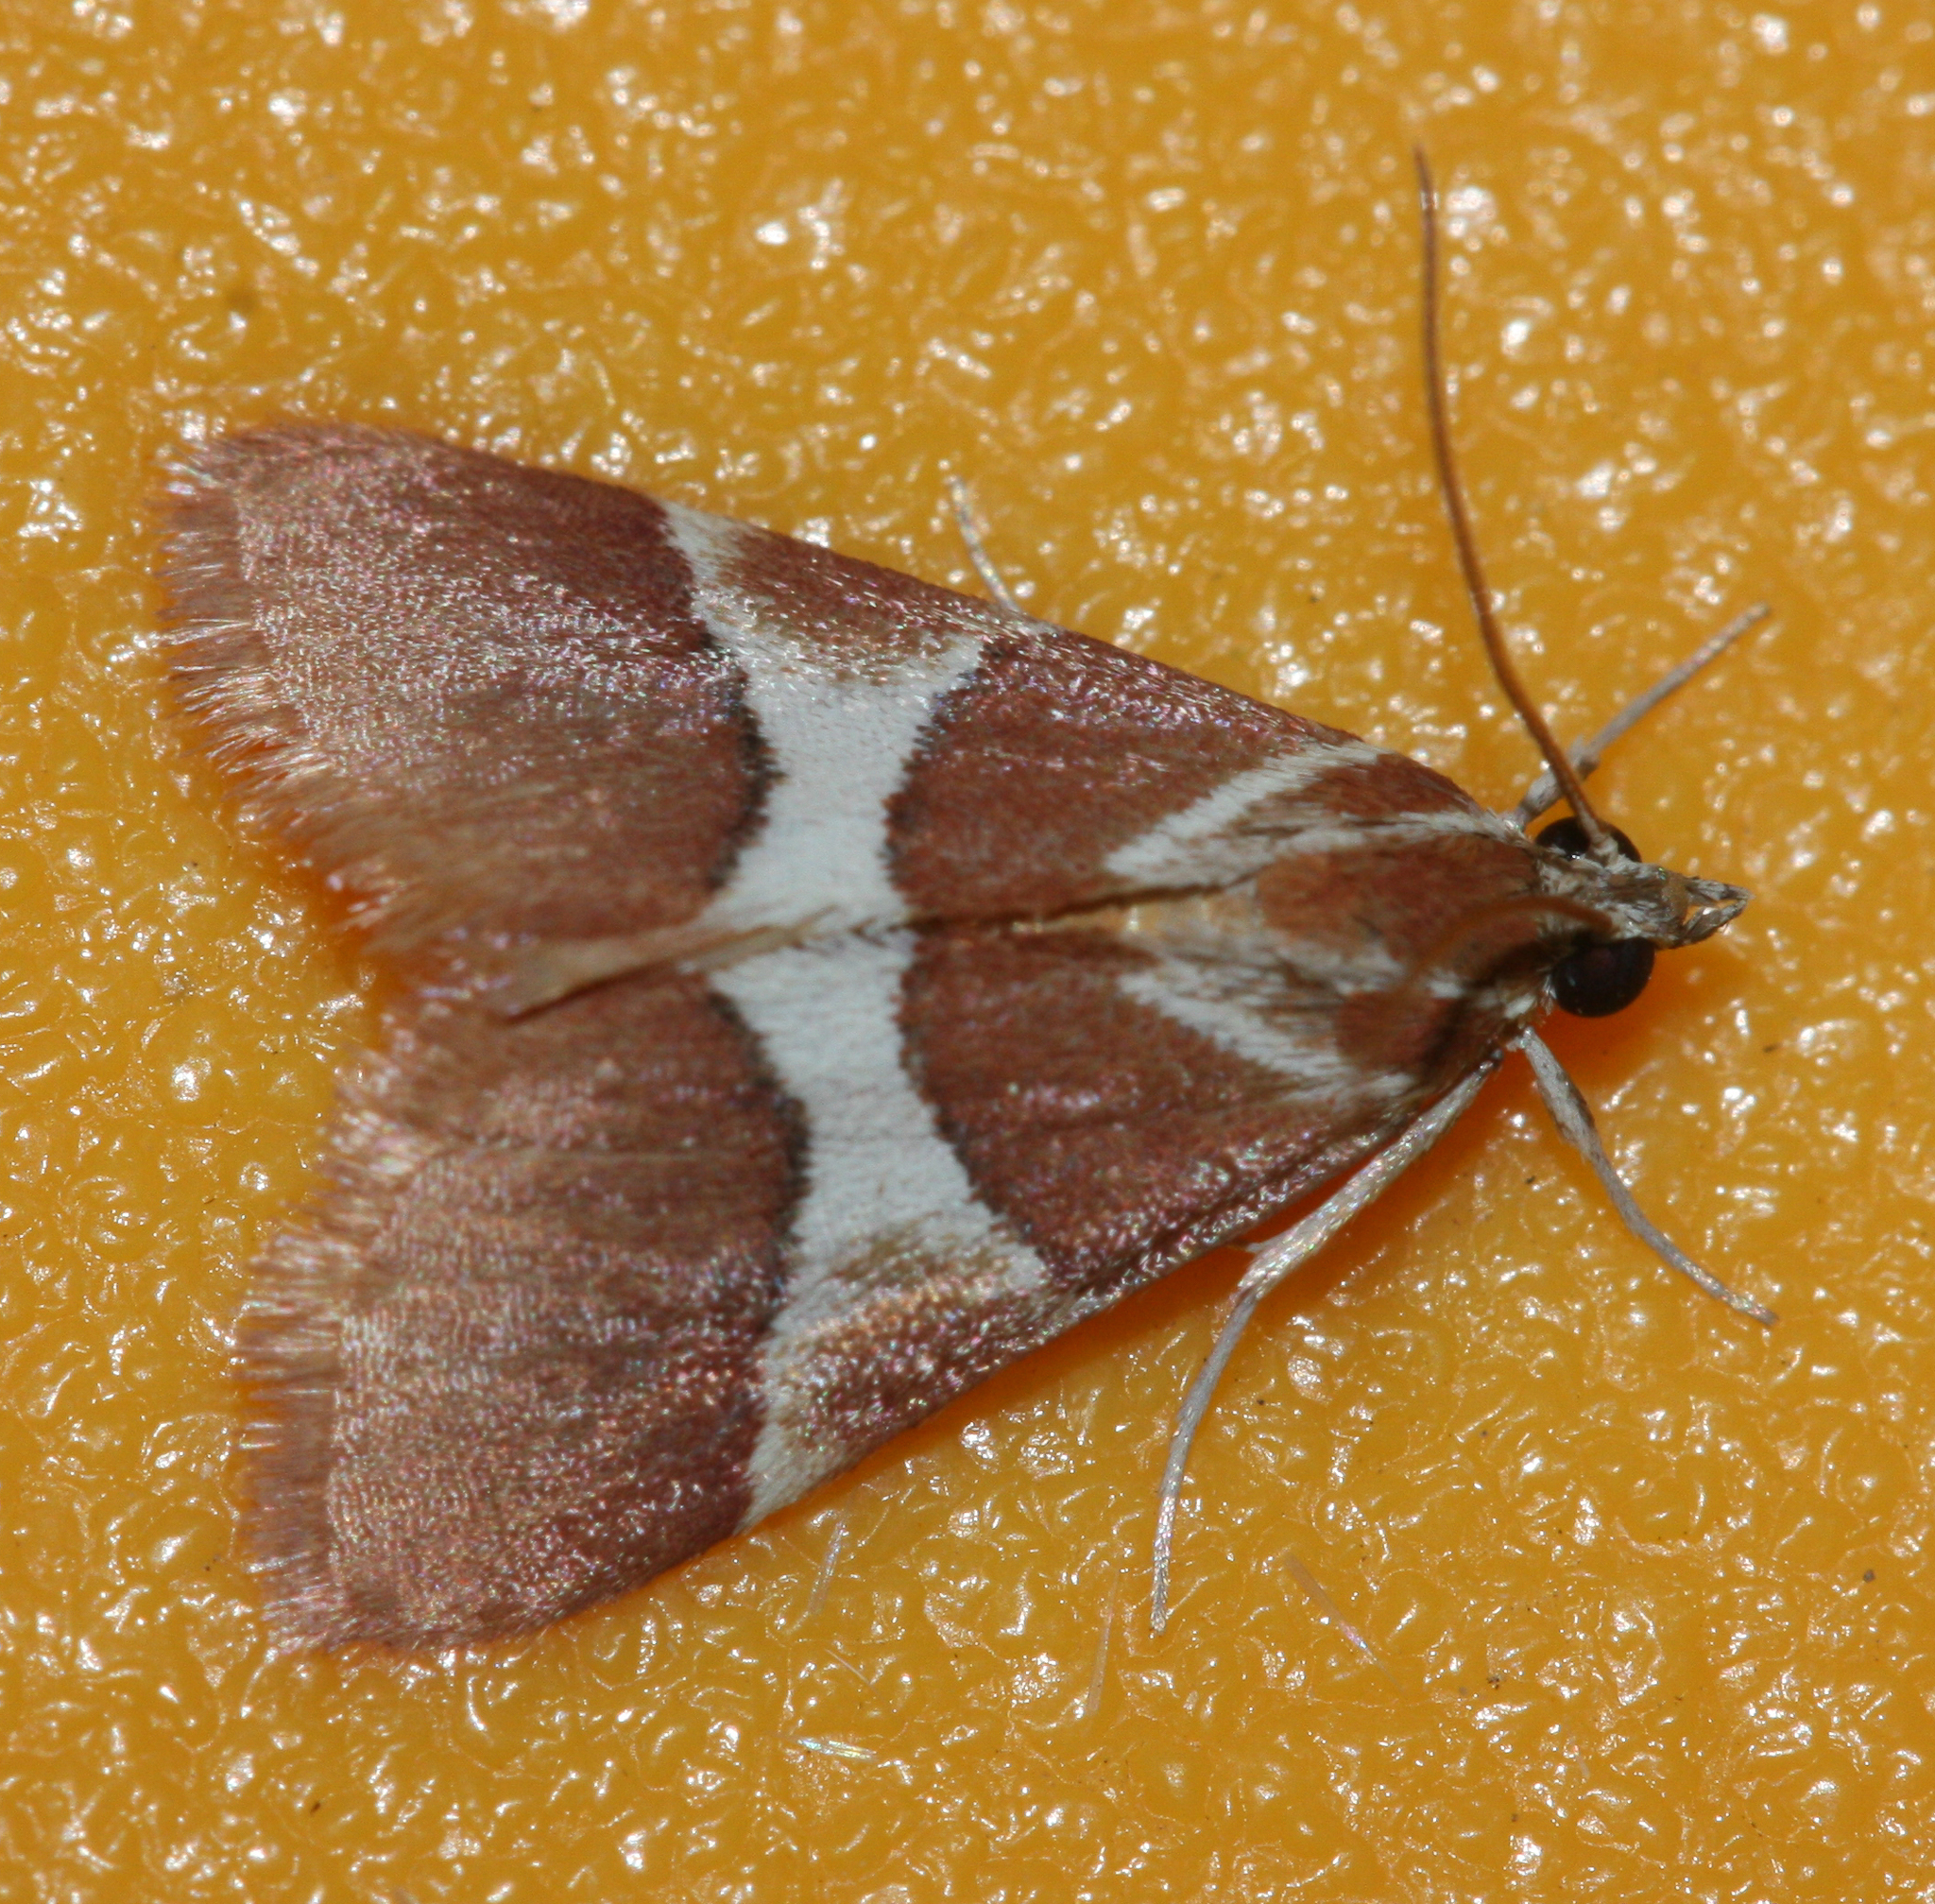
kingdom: Animalia
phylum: Arthropoda
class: Insecta
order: Lepidoptera
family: Crambidae
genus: Jativa
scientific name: Jativa castanealis
